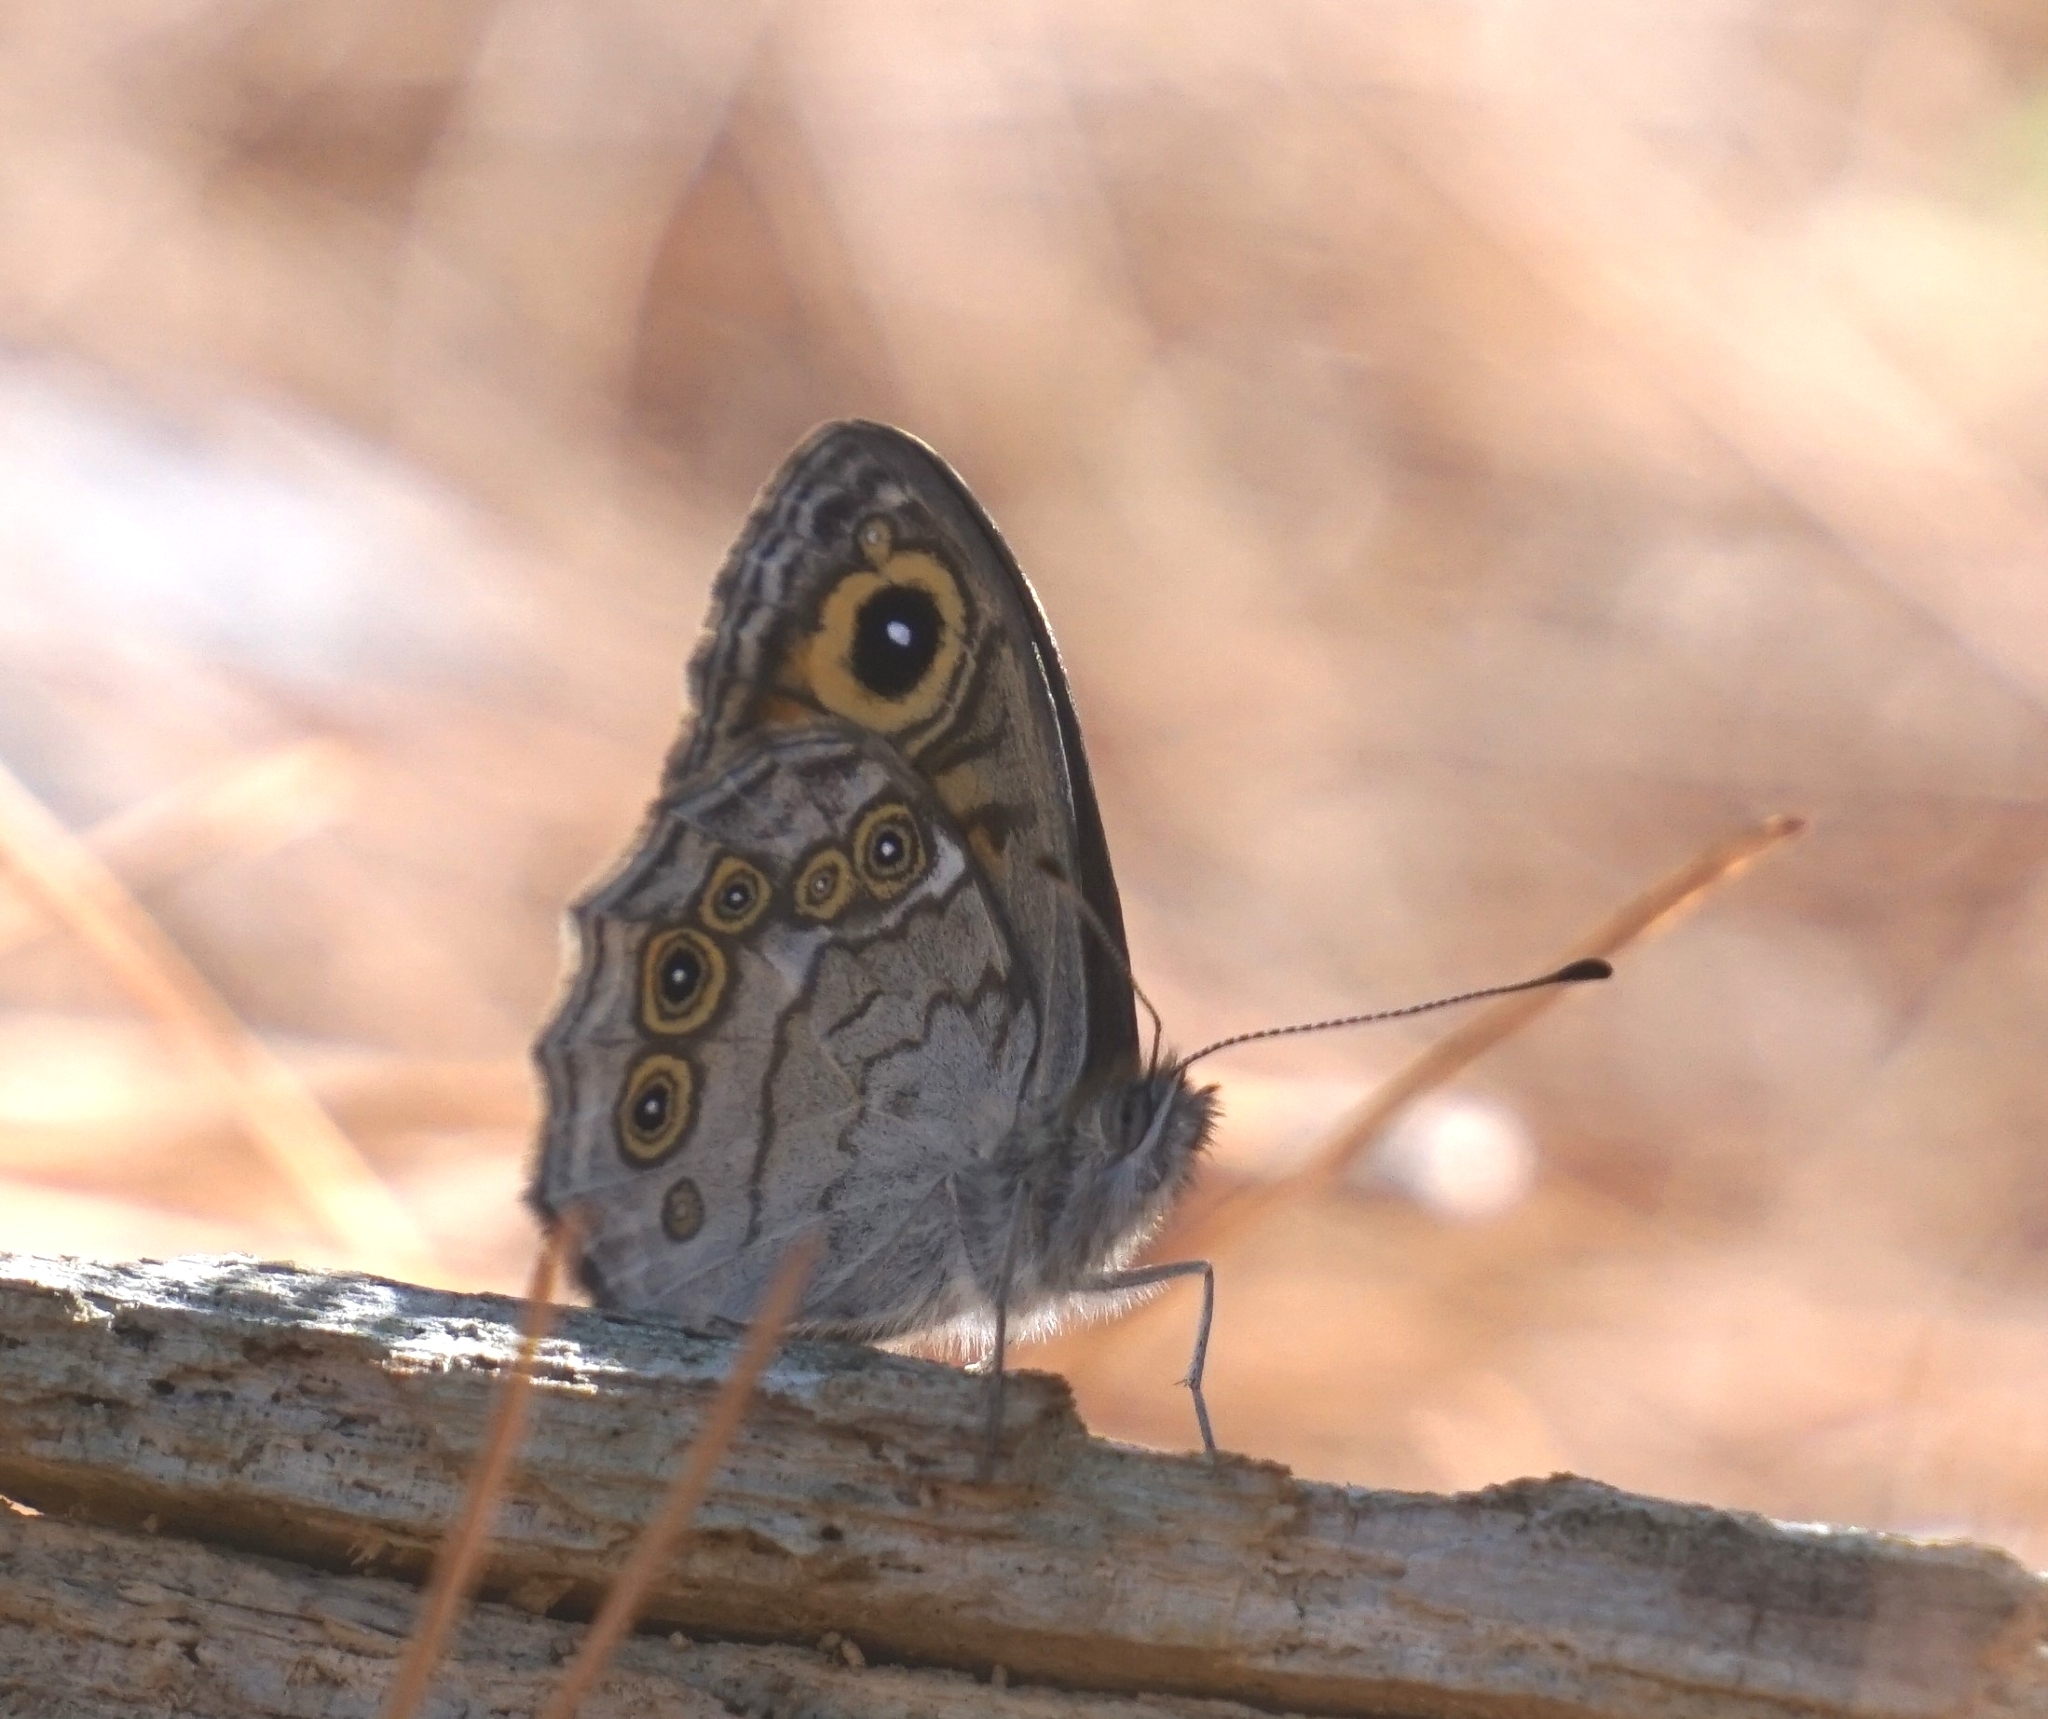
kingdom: Animalia
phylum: Arthropoda
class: Insecta
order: Lepidoptera
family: Nymphalidae
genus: Pararge
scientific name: Pararge Lasiommata maera
